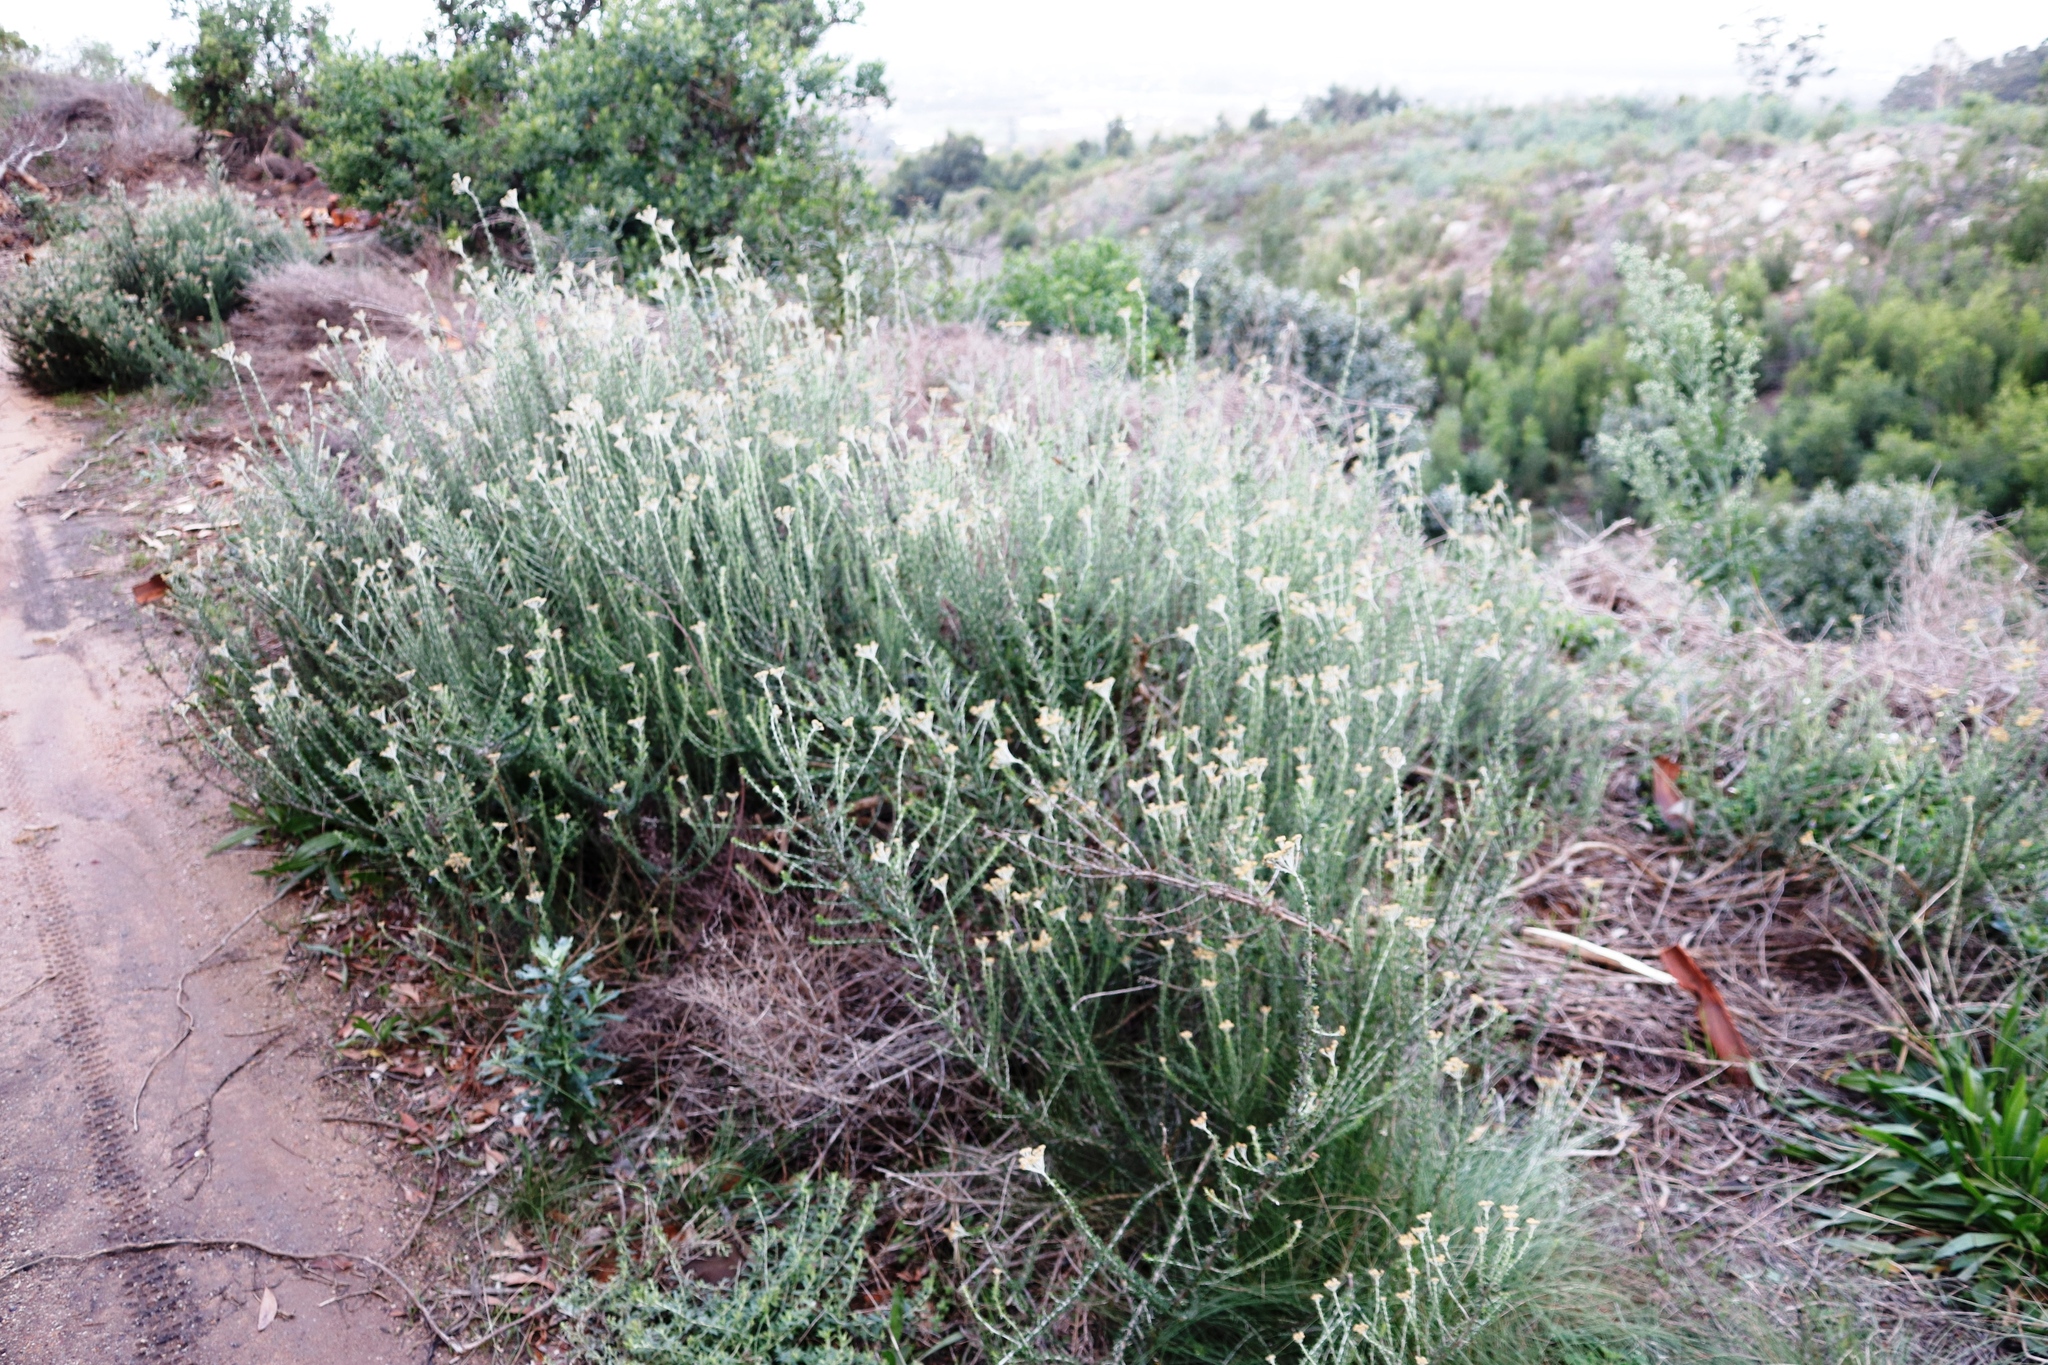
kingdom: Plantae
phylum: Tracheophyta
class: Magnoliopsida
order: Asterales
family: Asteraceae
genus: Metalasia
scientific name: Metalasia densa
